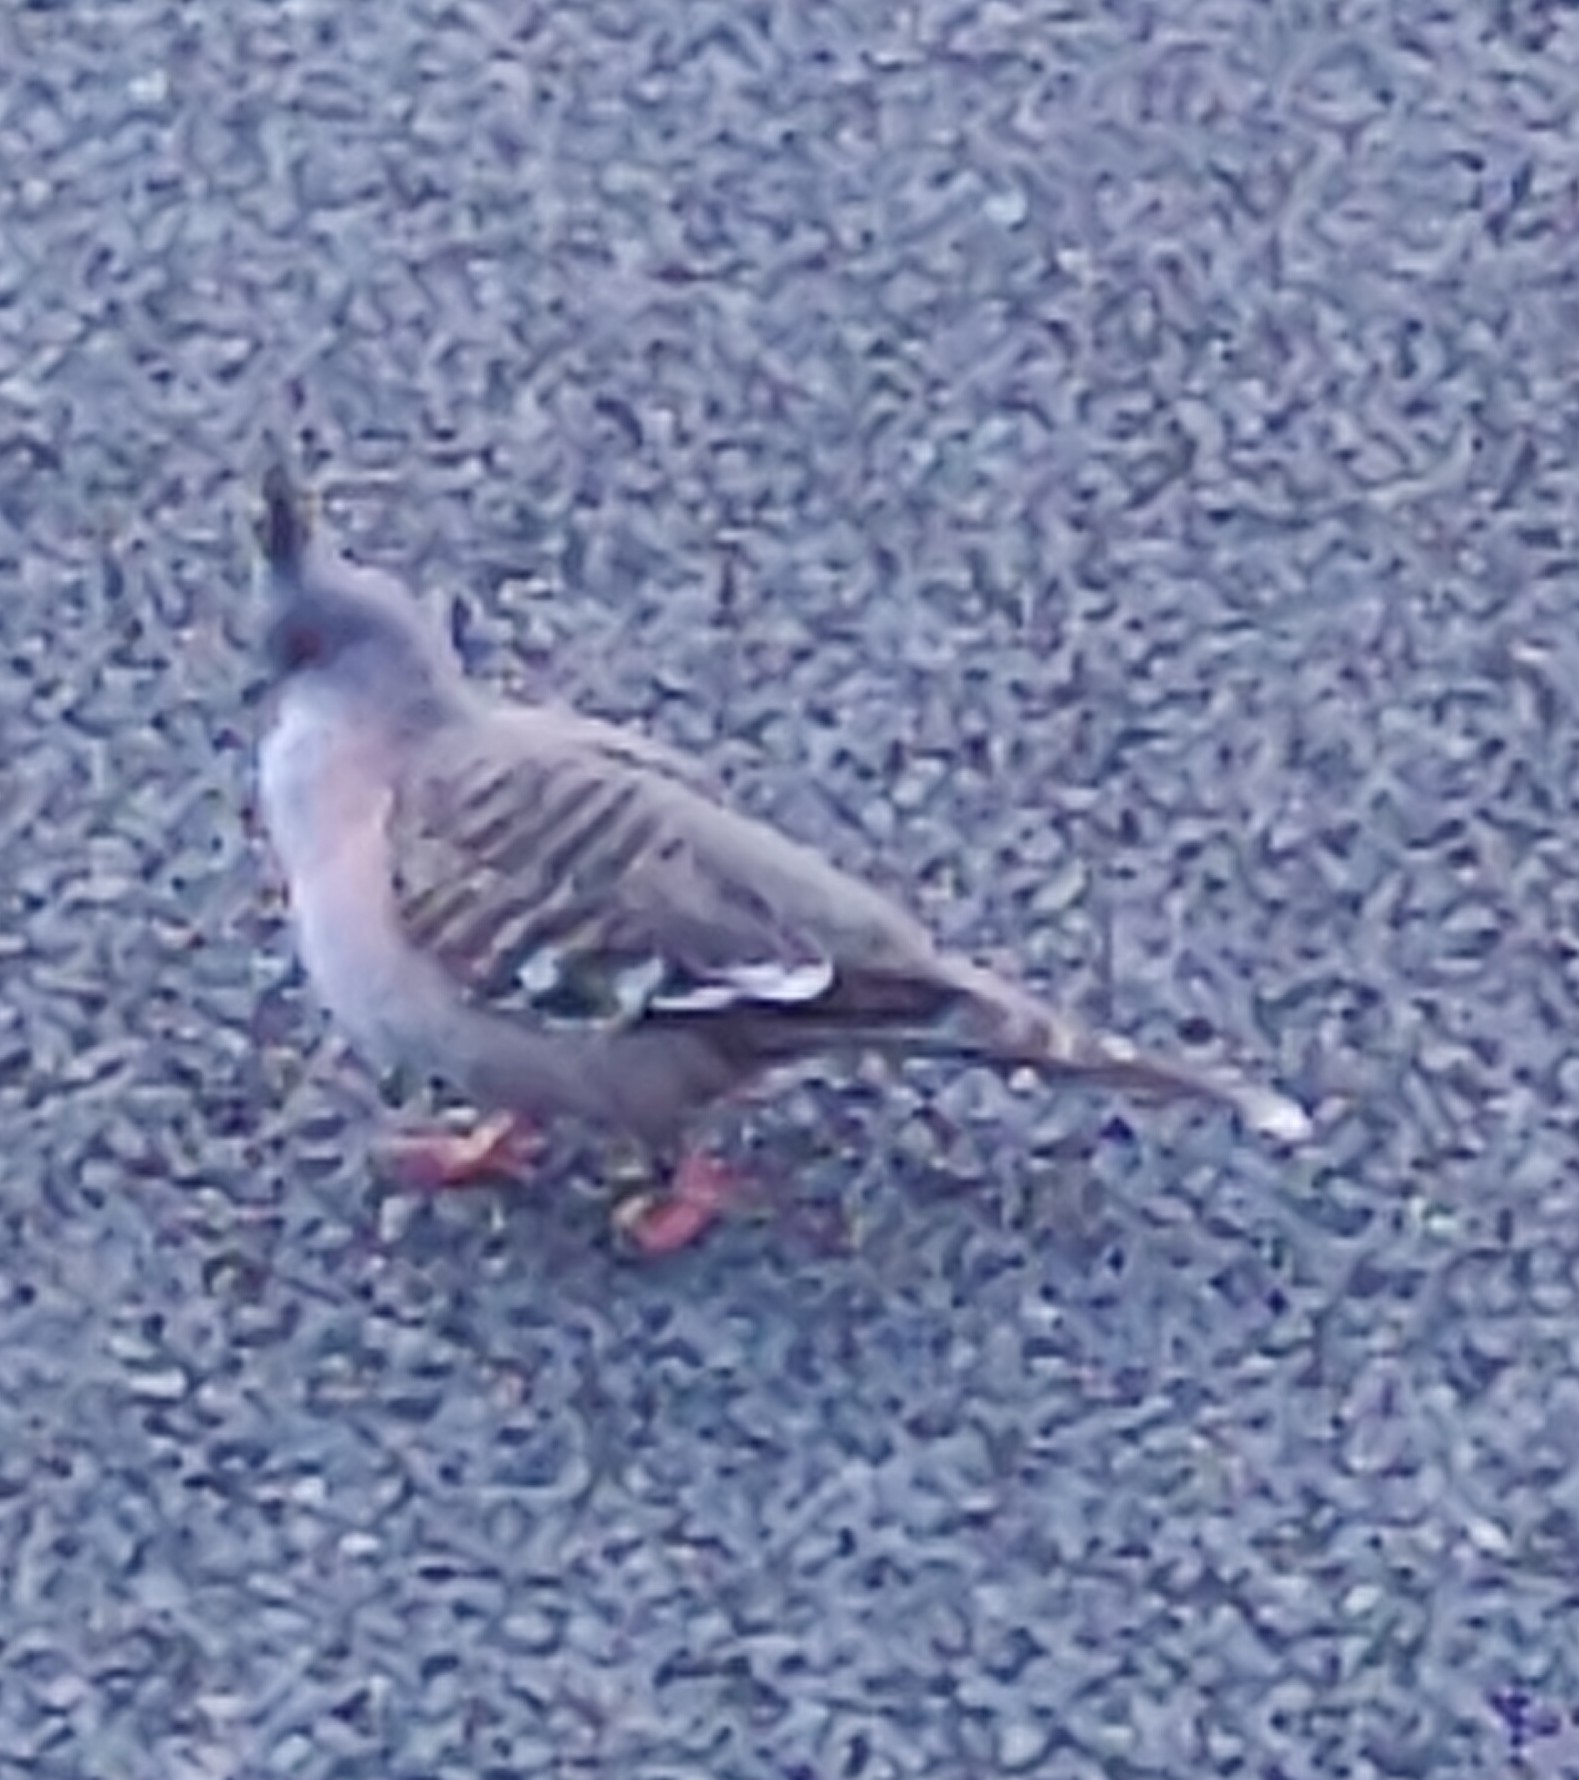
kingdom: Animalia
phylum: Chordata
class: Aves
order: Columbiformes
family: Columbidae
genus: Ocyphaps
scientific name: Ocyphaps lophotes
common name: Crested pigeon
